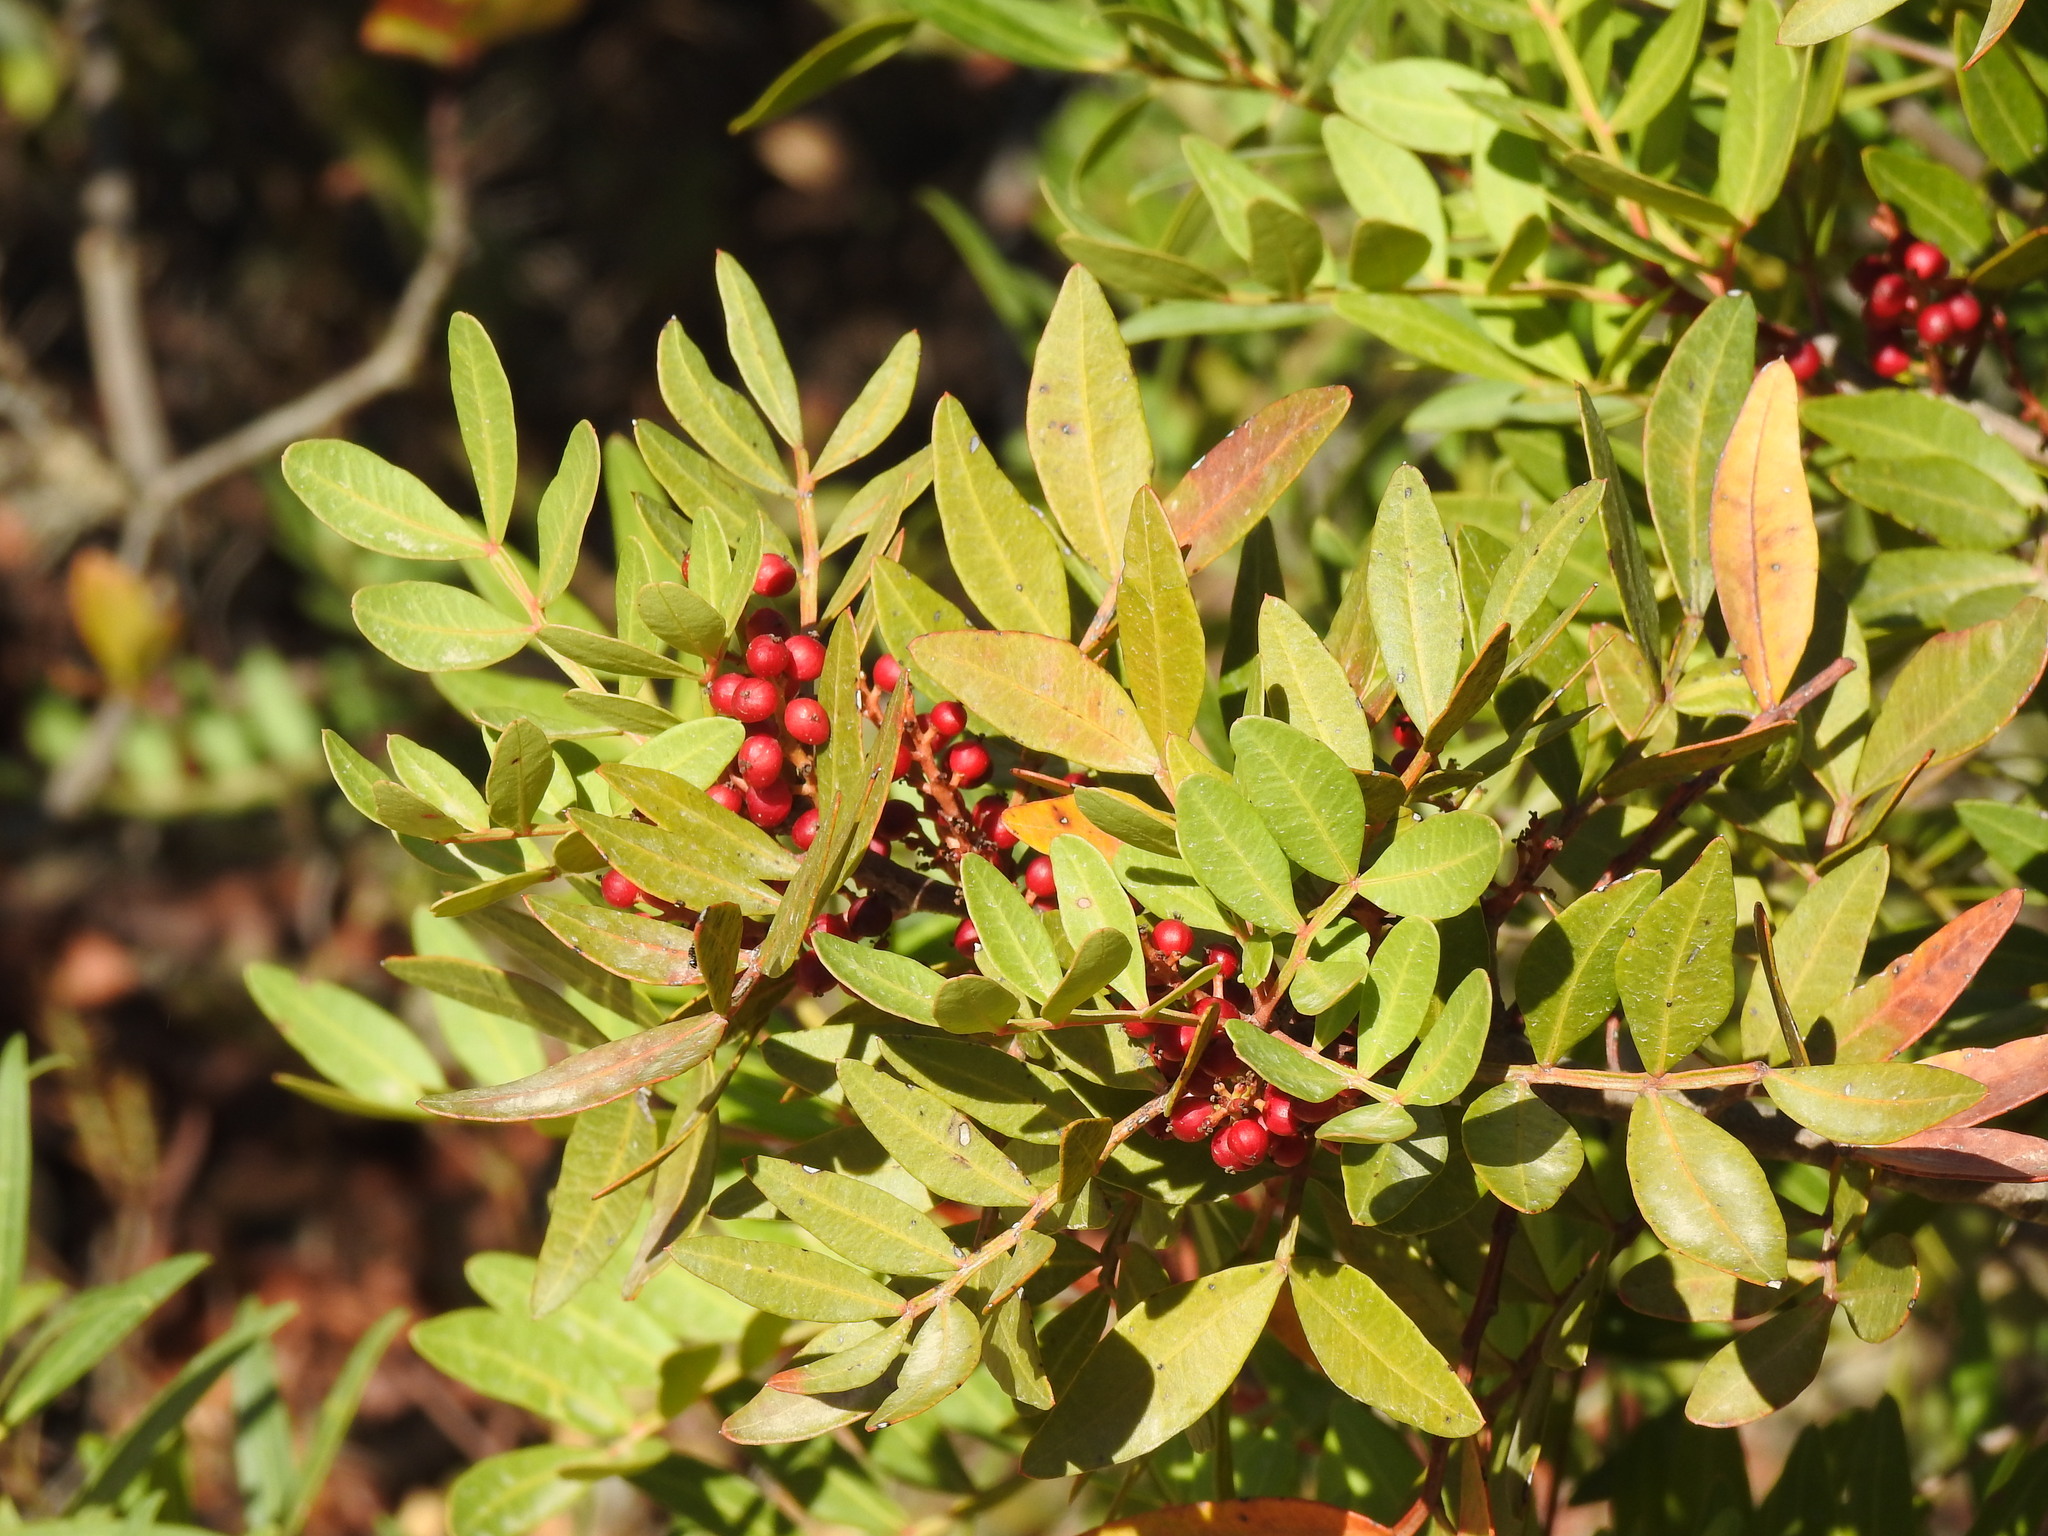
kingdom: Plantae
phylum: Tracheophyta
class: Magnoliopsida
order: Sapindales
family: Anacardiaceae
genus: Pistacia
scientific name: Pistacia lentiscus
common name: Lentisk
